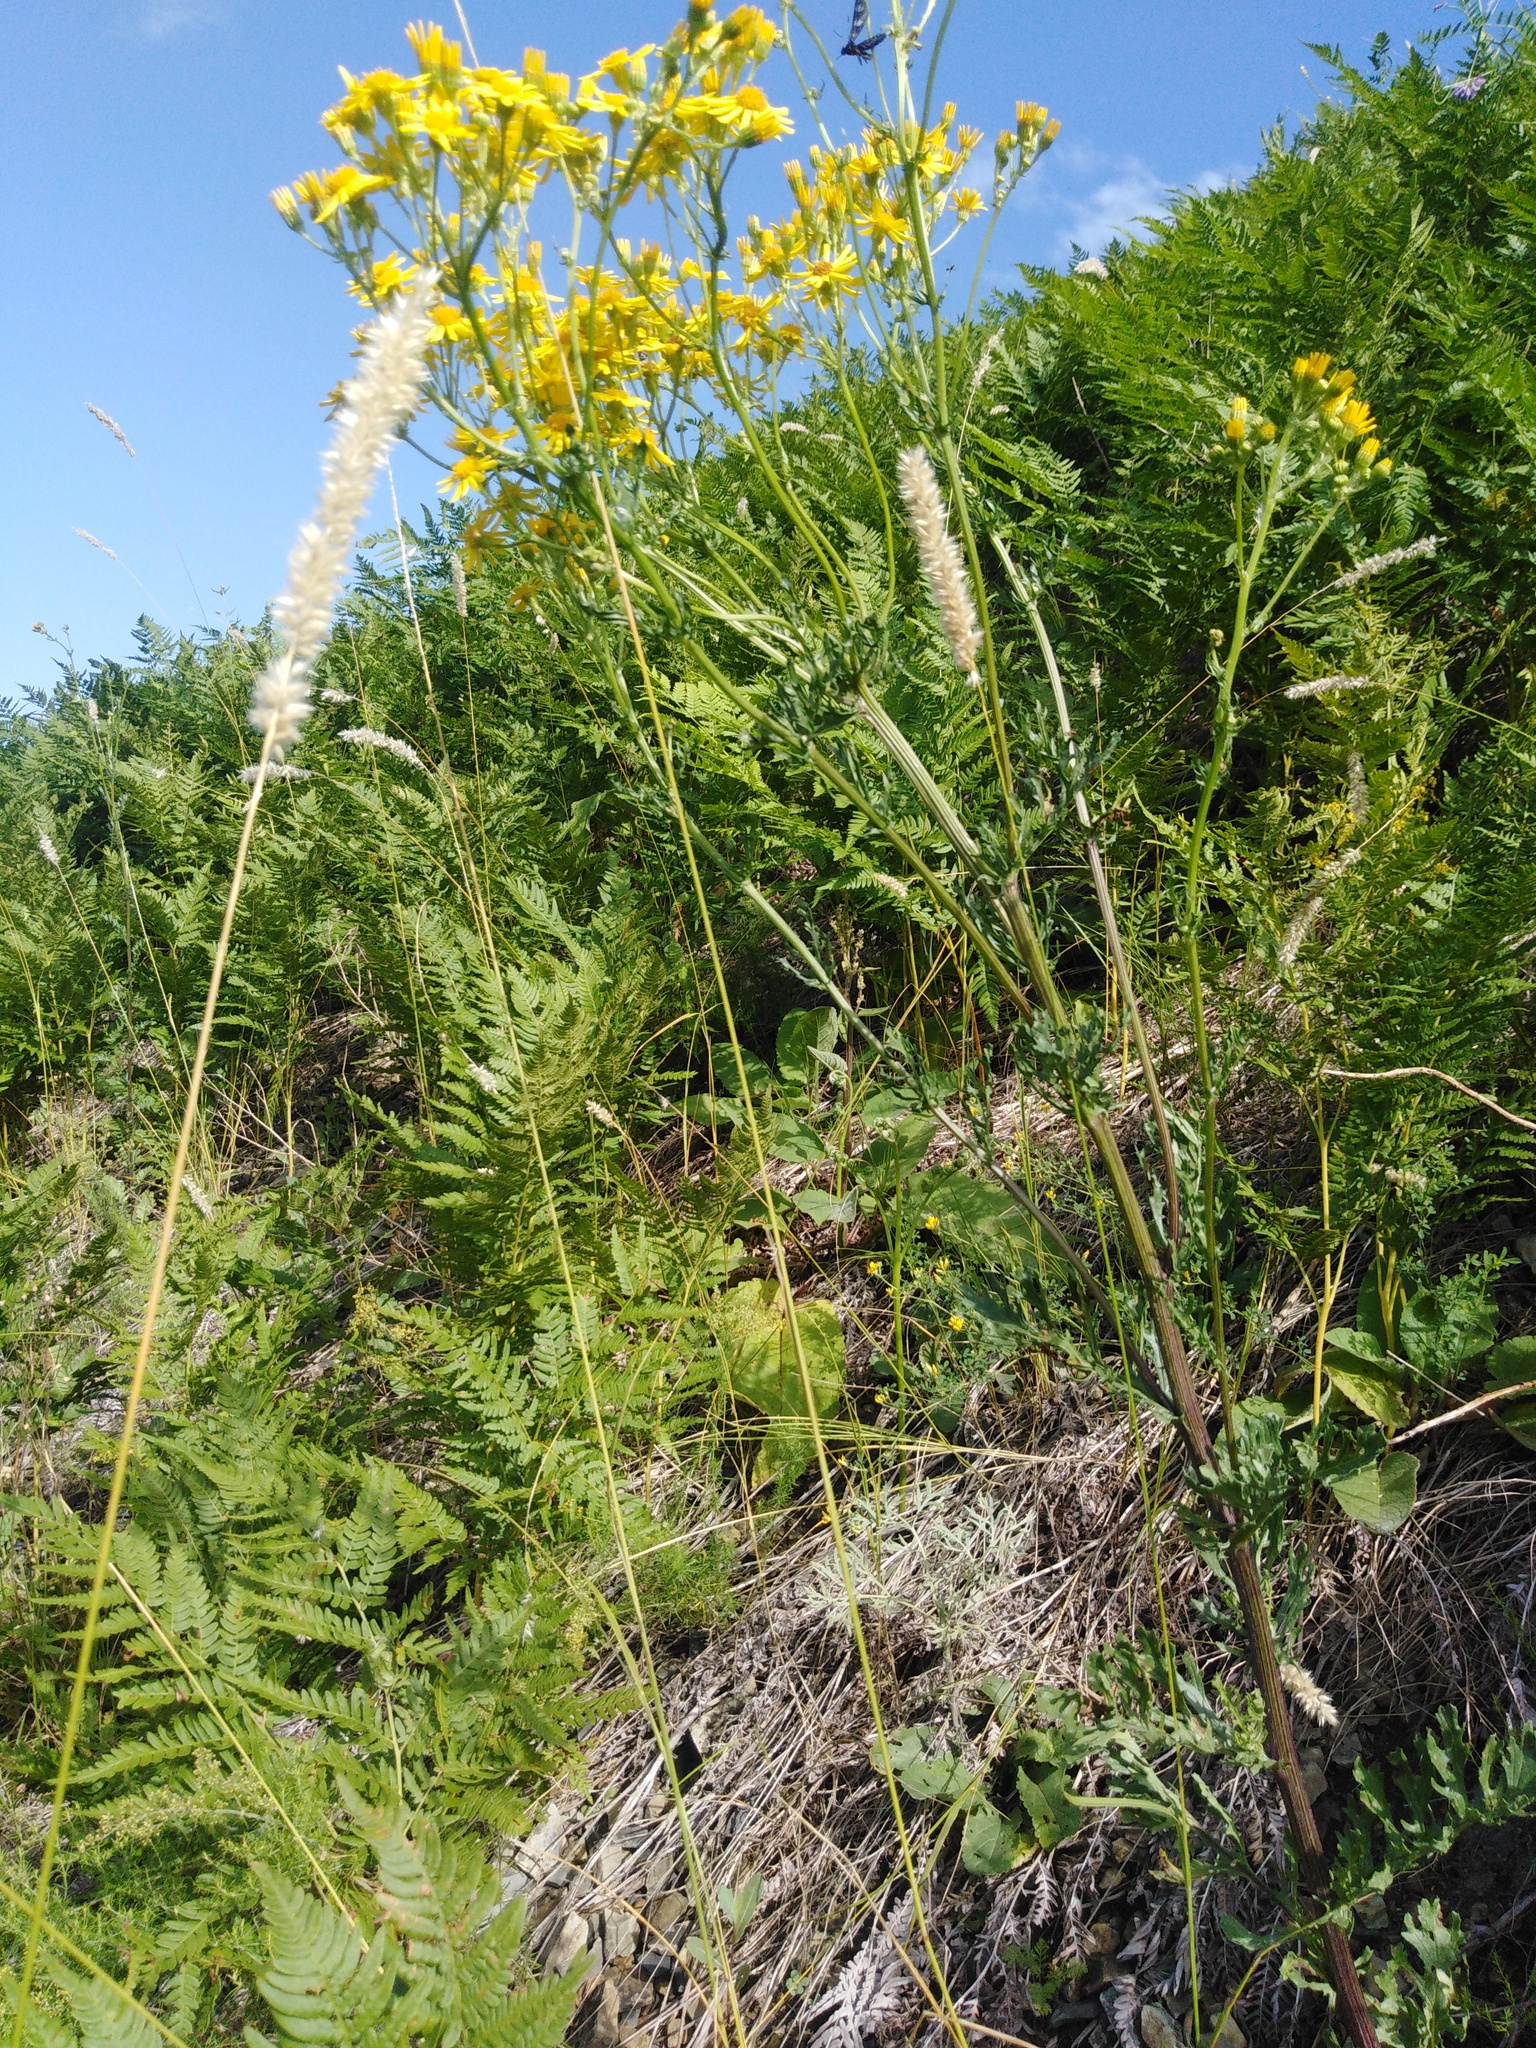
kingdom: Plantae
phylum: Tracheophyta
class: Magnoliopsida
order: Asterales
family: Asteraceae
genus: Jacobaea
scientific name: Jacobaea vulgaris
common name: Stinking willie
